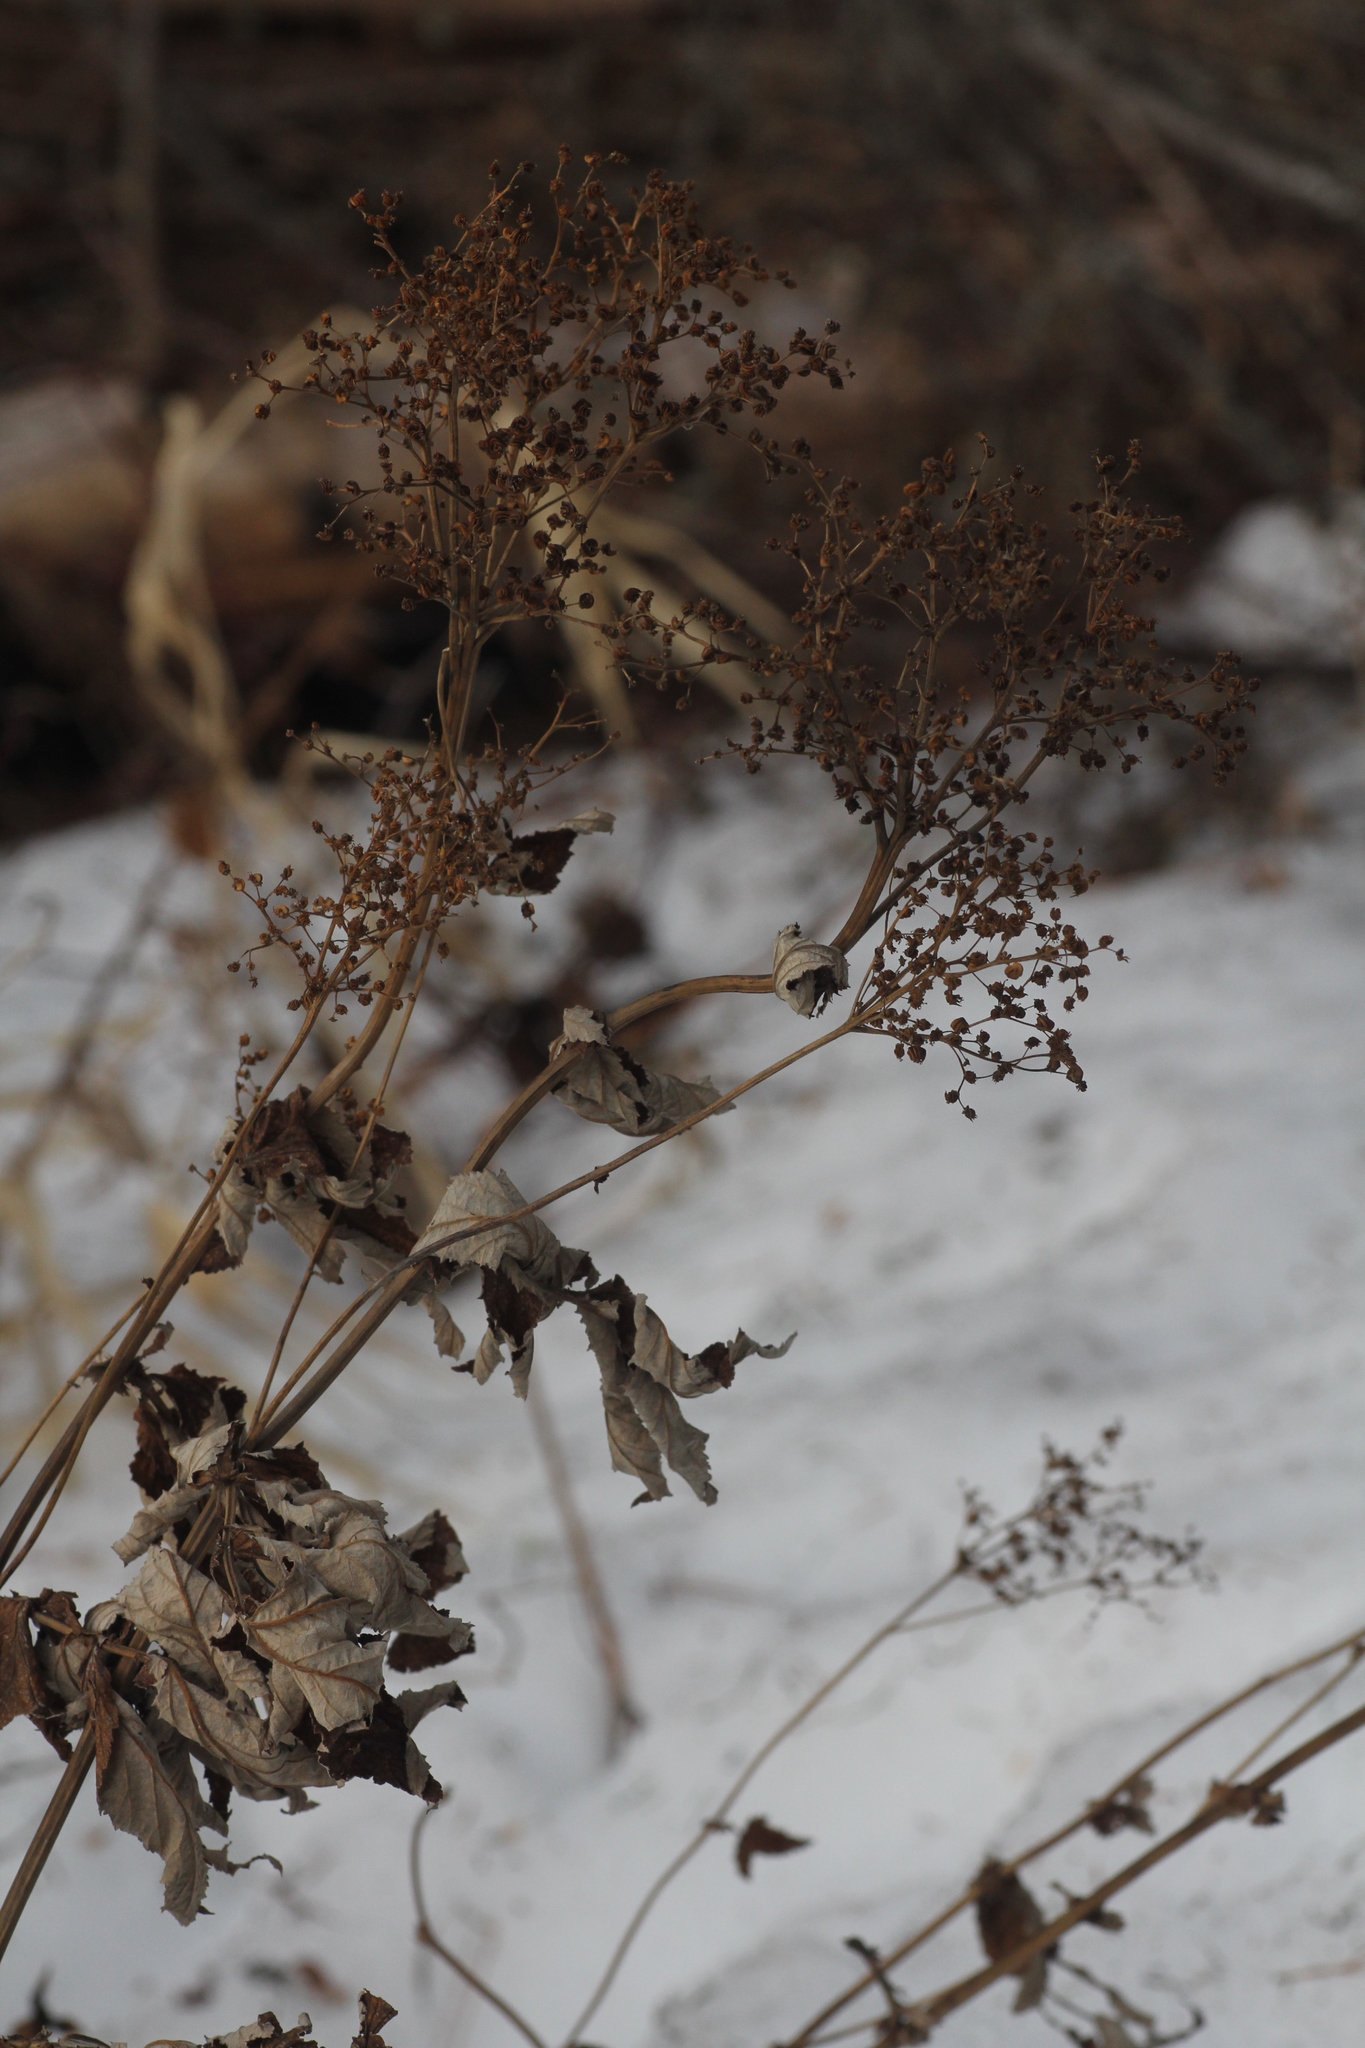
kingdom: Plantae
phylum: Tracheophyta
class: Magnoliopsida
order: Rosales
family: Rosaceae
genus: Filipendula
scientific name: Filipendula ulmaria
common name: Meadowsweet
